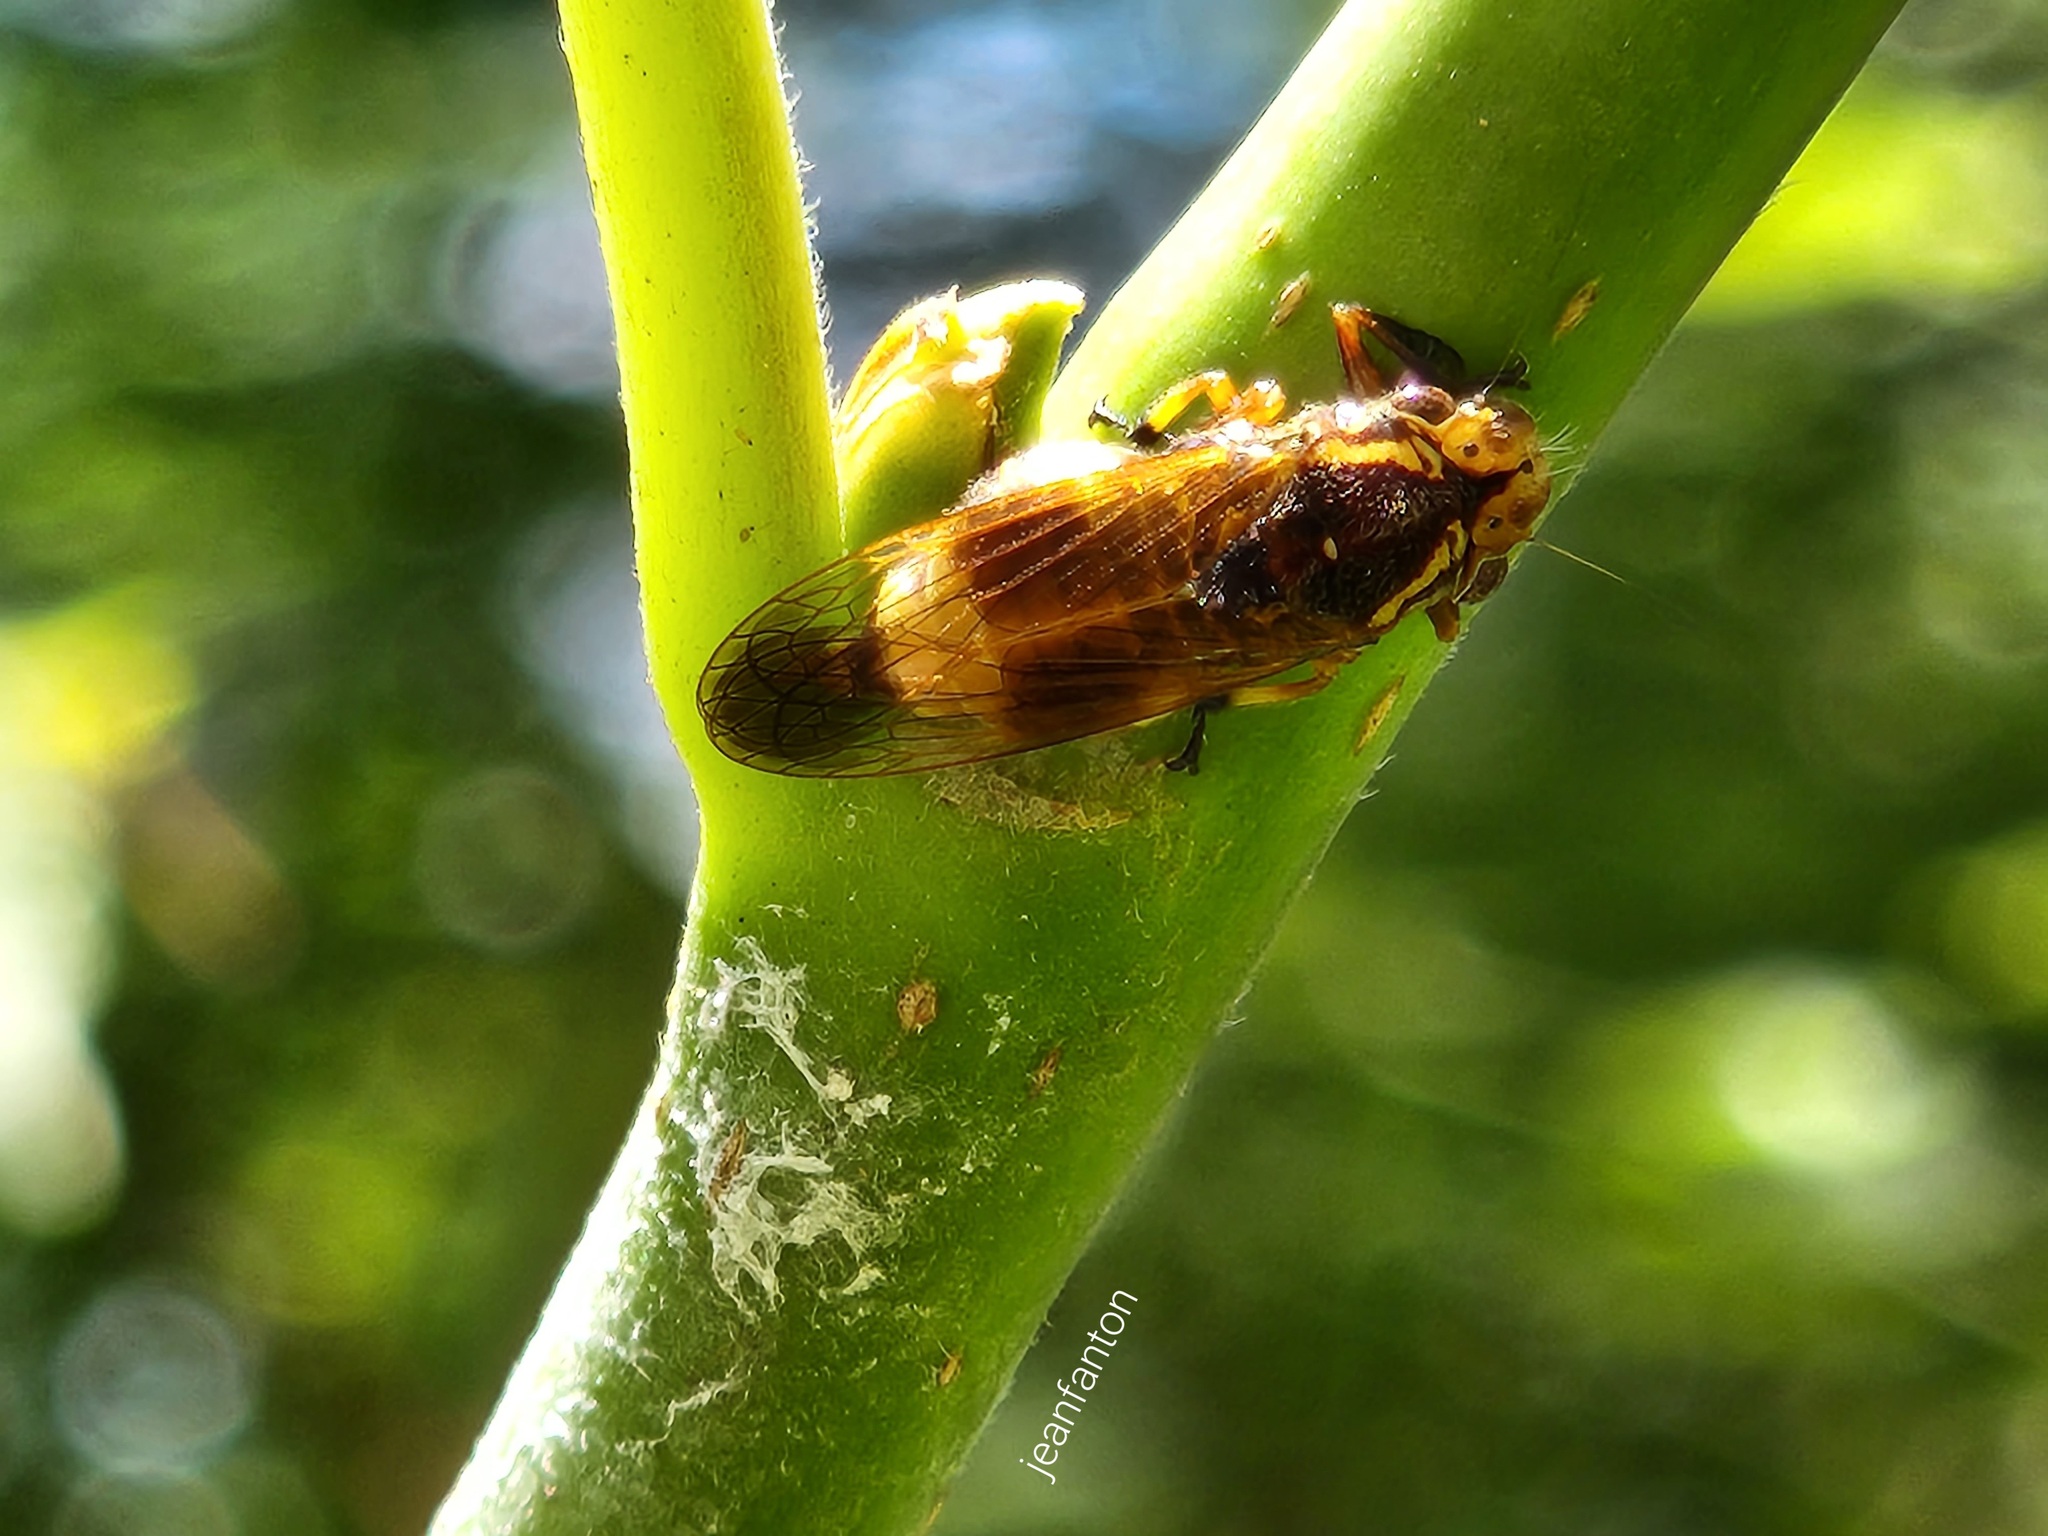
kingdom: Animalia
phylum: Arthropoda
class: Insecta
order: Hemiptera
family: Cicadellidae
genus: Teletusa
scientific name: Teletusa limpida
